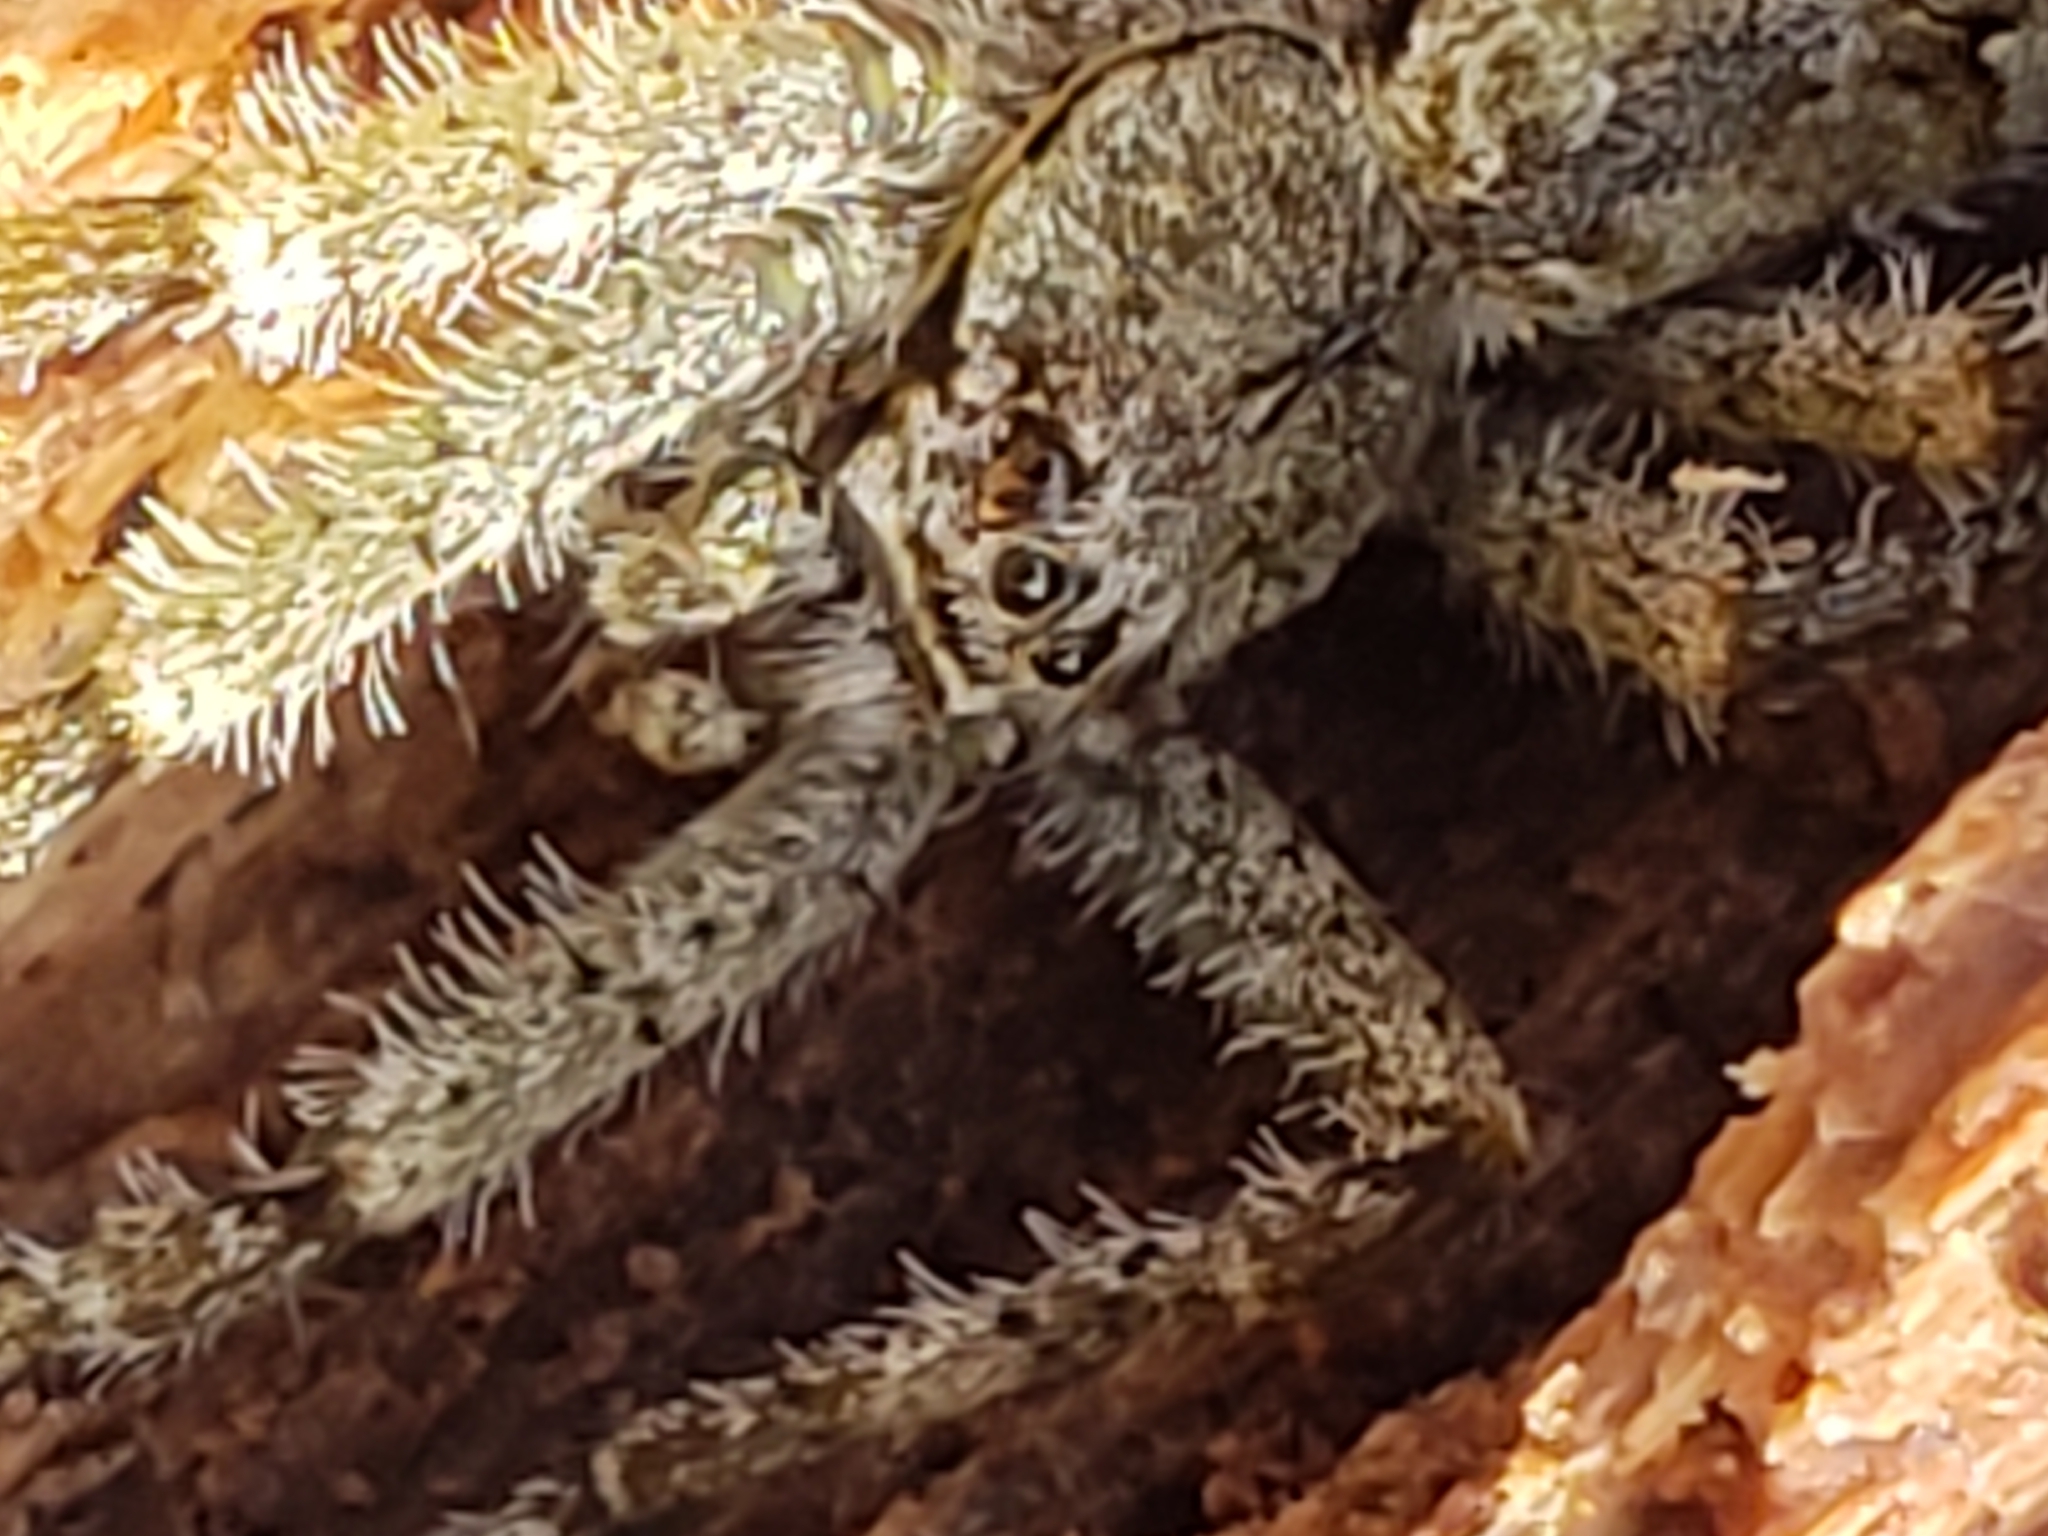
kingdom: Animalia
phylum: Arthropoda
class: Arachnida
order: Araneae
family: Pisauridae
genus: Dolomedes
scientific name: Dolomedes albineus
